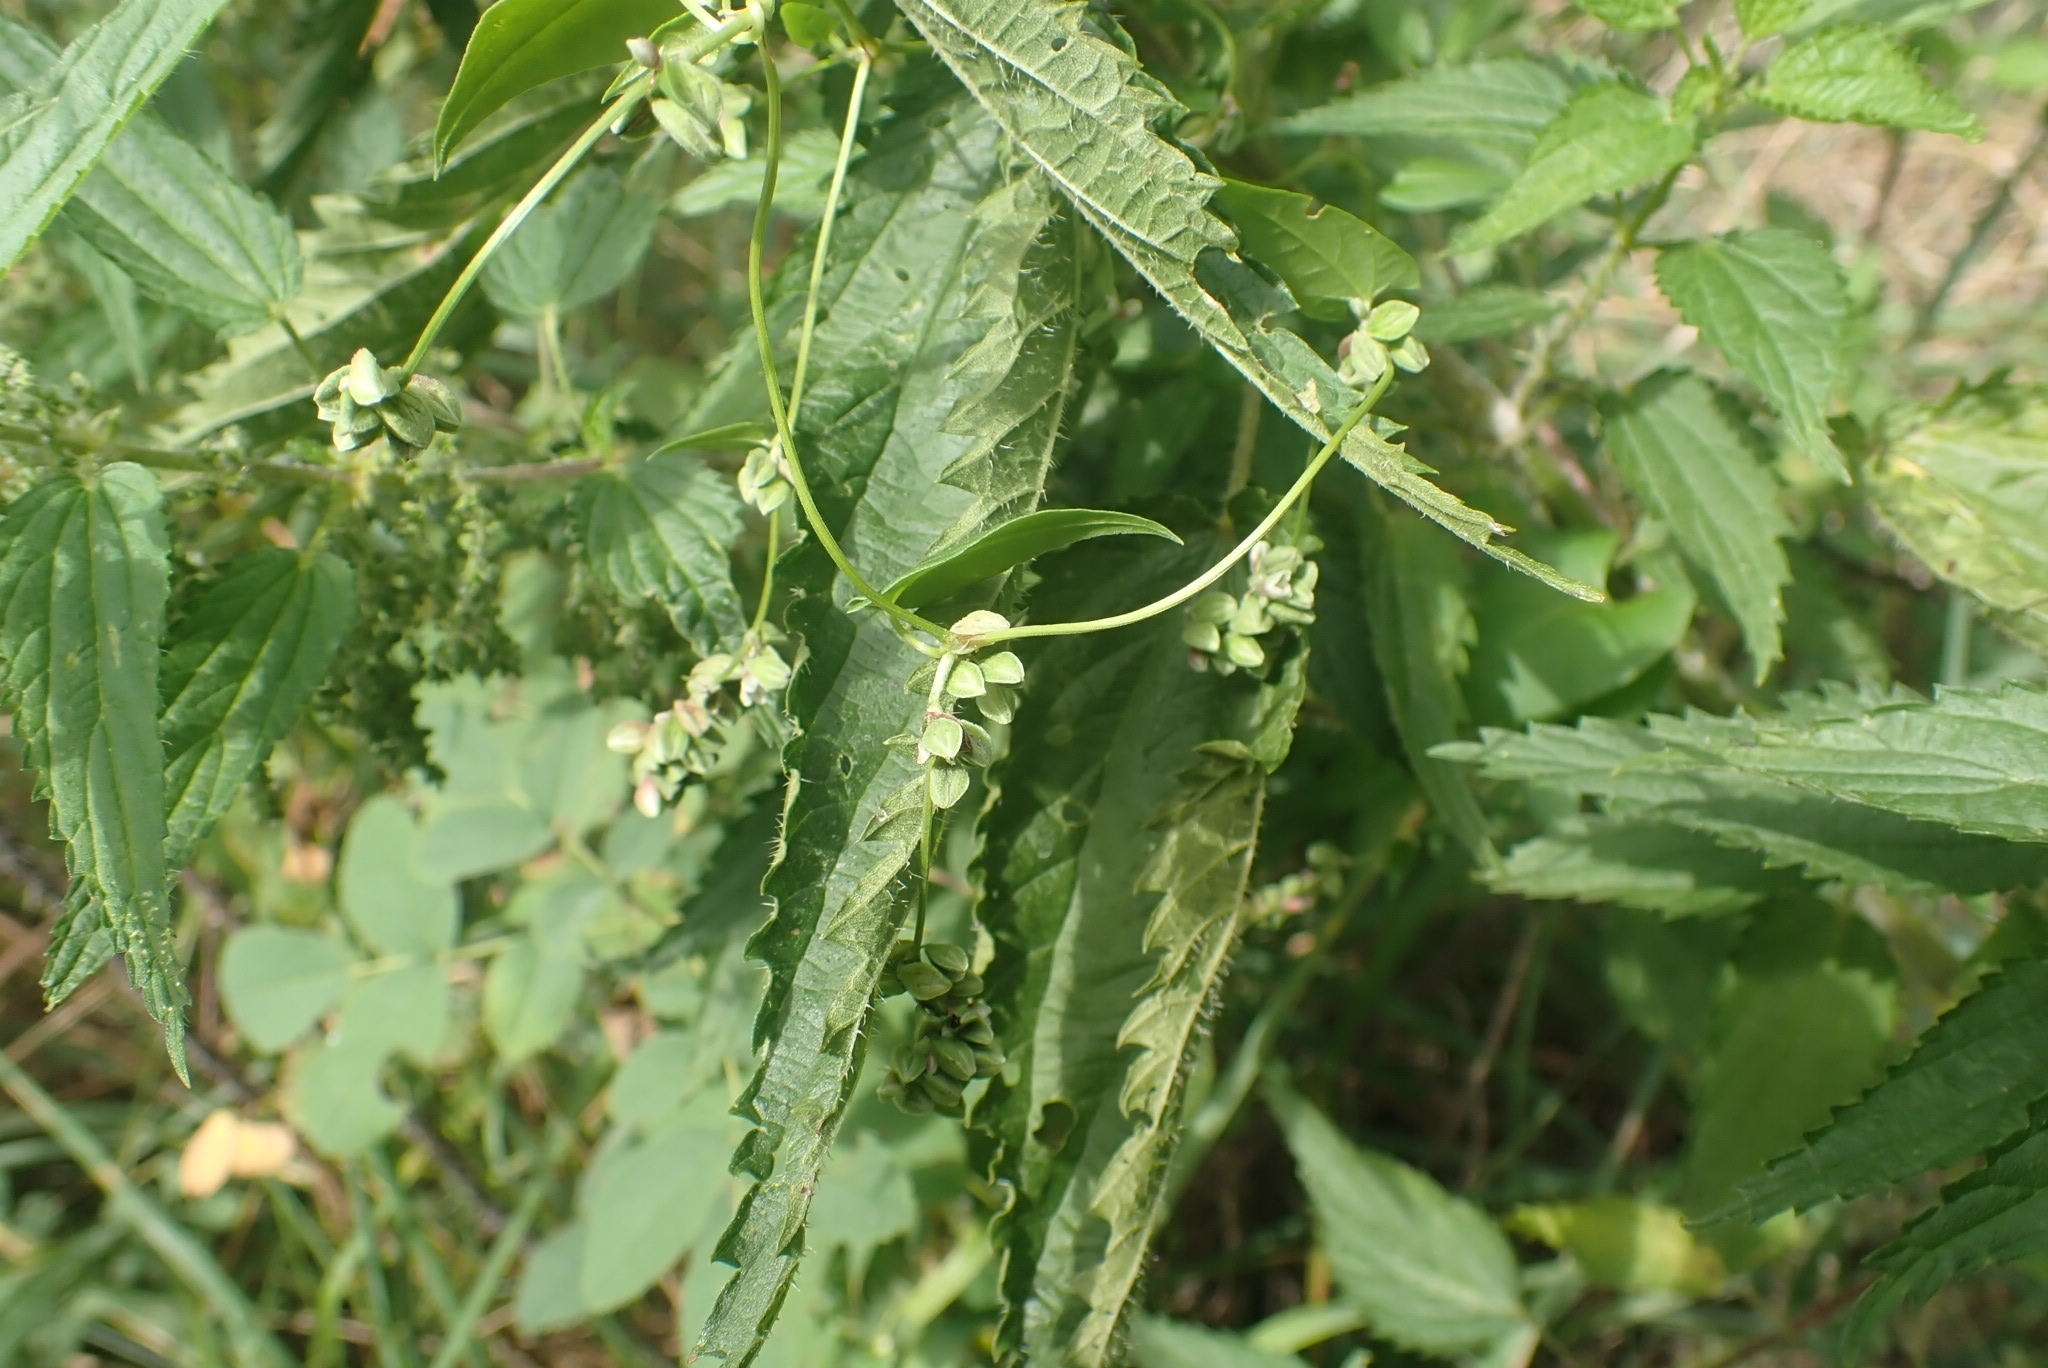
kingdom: Plantae
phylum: Tracheophyta
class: Magnoliopsida
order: Caryophyllales
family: Polygonaceae
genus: Fallopia
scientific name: Fallopia convolvulus
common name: Black bindweed
